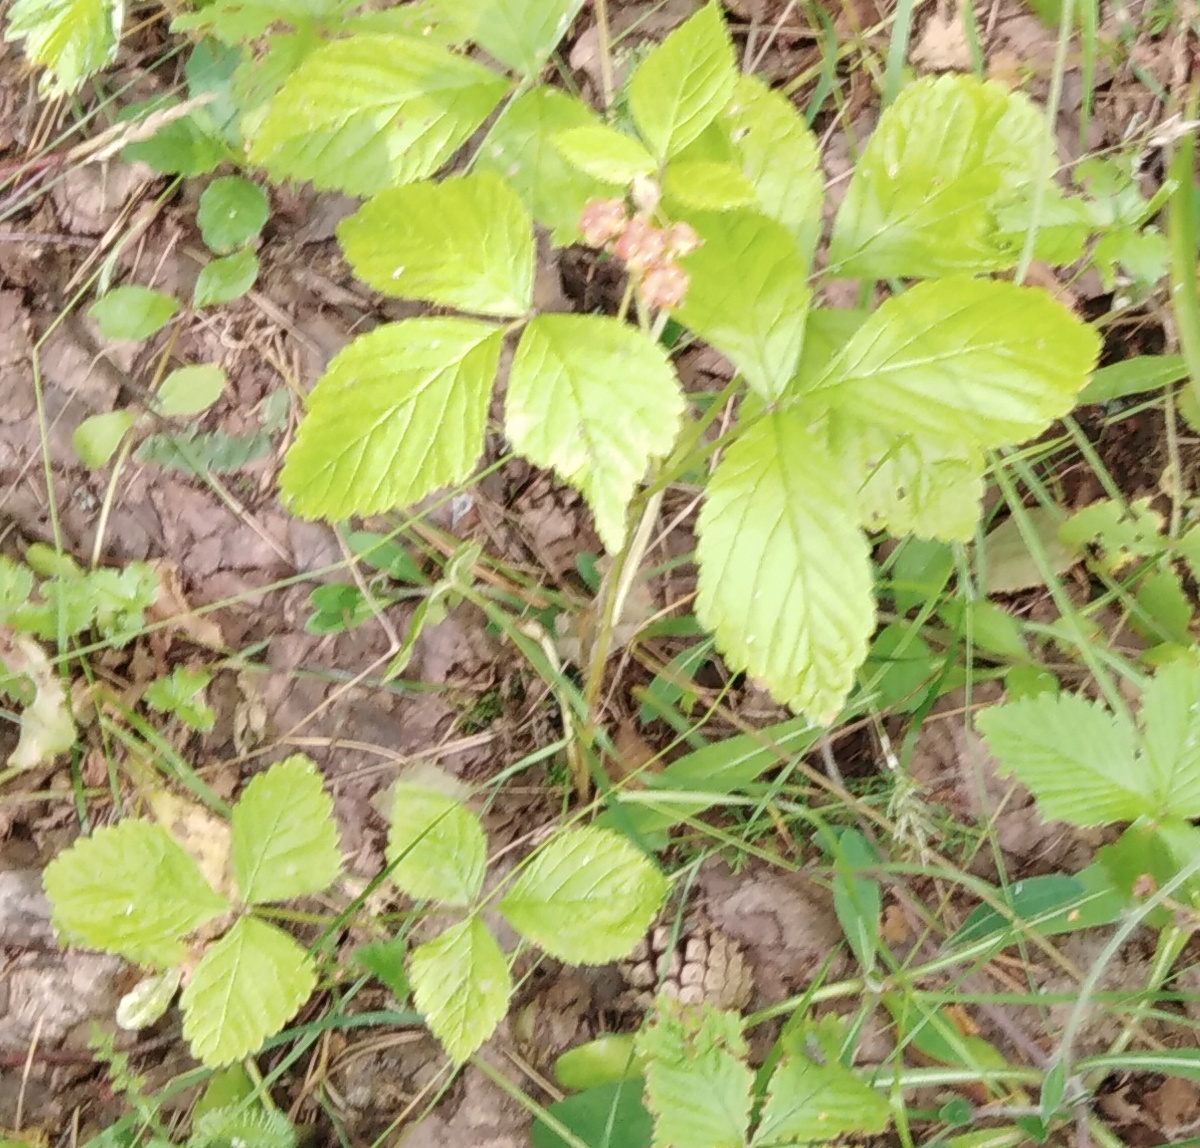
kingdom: Plantae
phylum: Tracheophyta
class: Magnoliopsida
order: Rosales
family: Rosaceae
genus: Rubus
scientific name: Rubus saxatilis
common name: Stone bramble
